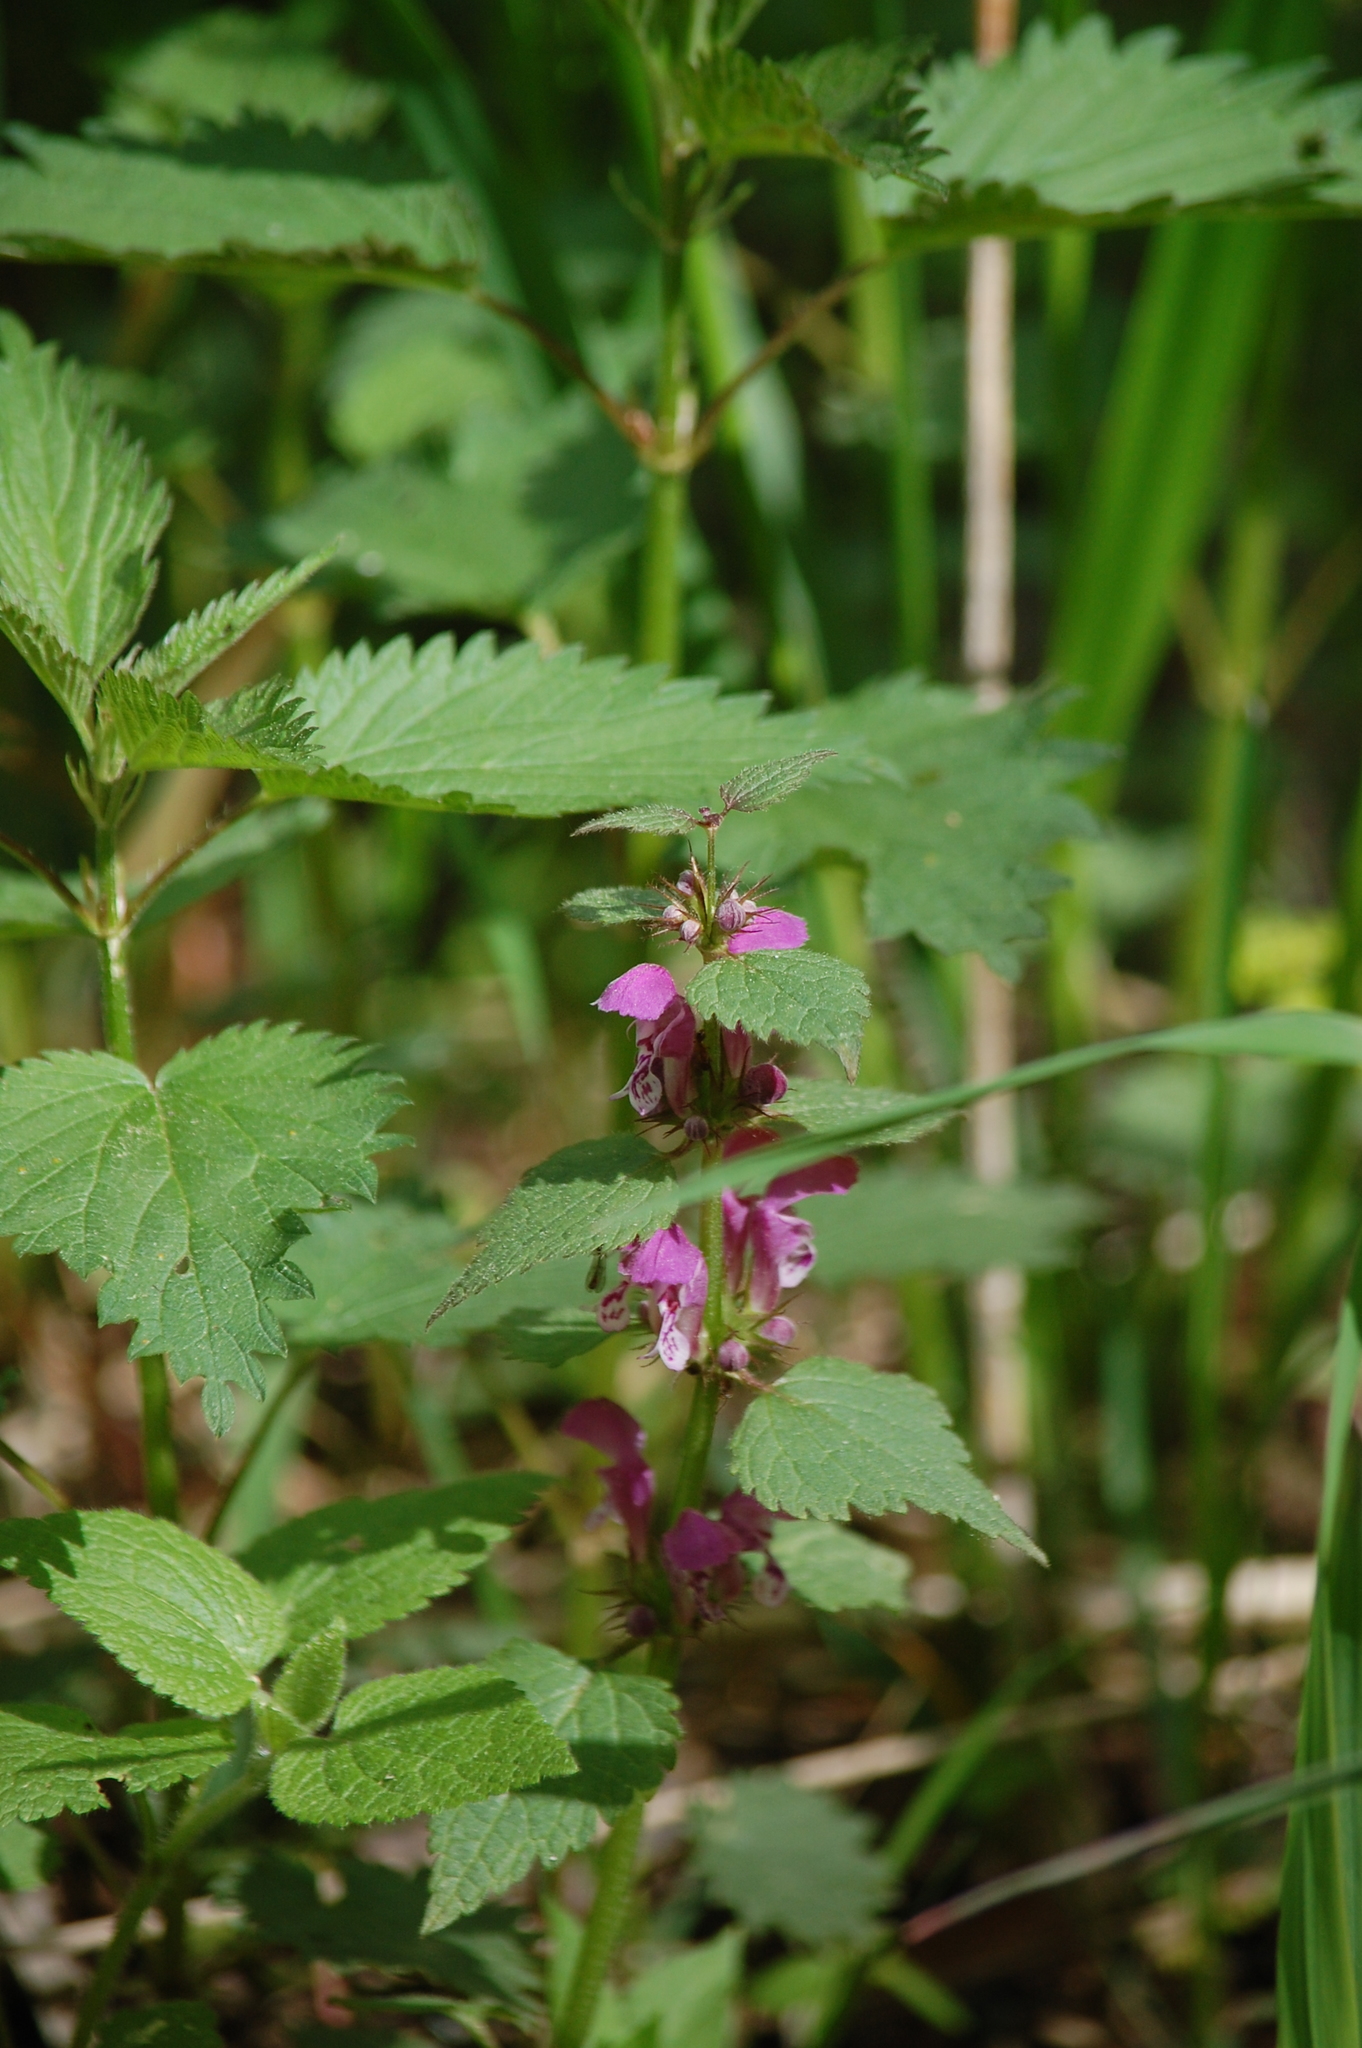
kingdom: Plantae
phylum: Tracheophyta
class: Magnoliopsida
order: Lamiales
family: Lamiaceae
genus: Lamium
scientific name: Lamium maculatum
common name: Spotted dead-nettle
